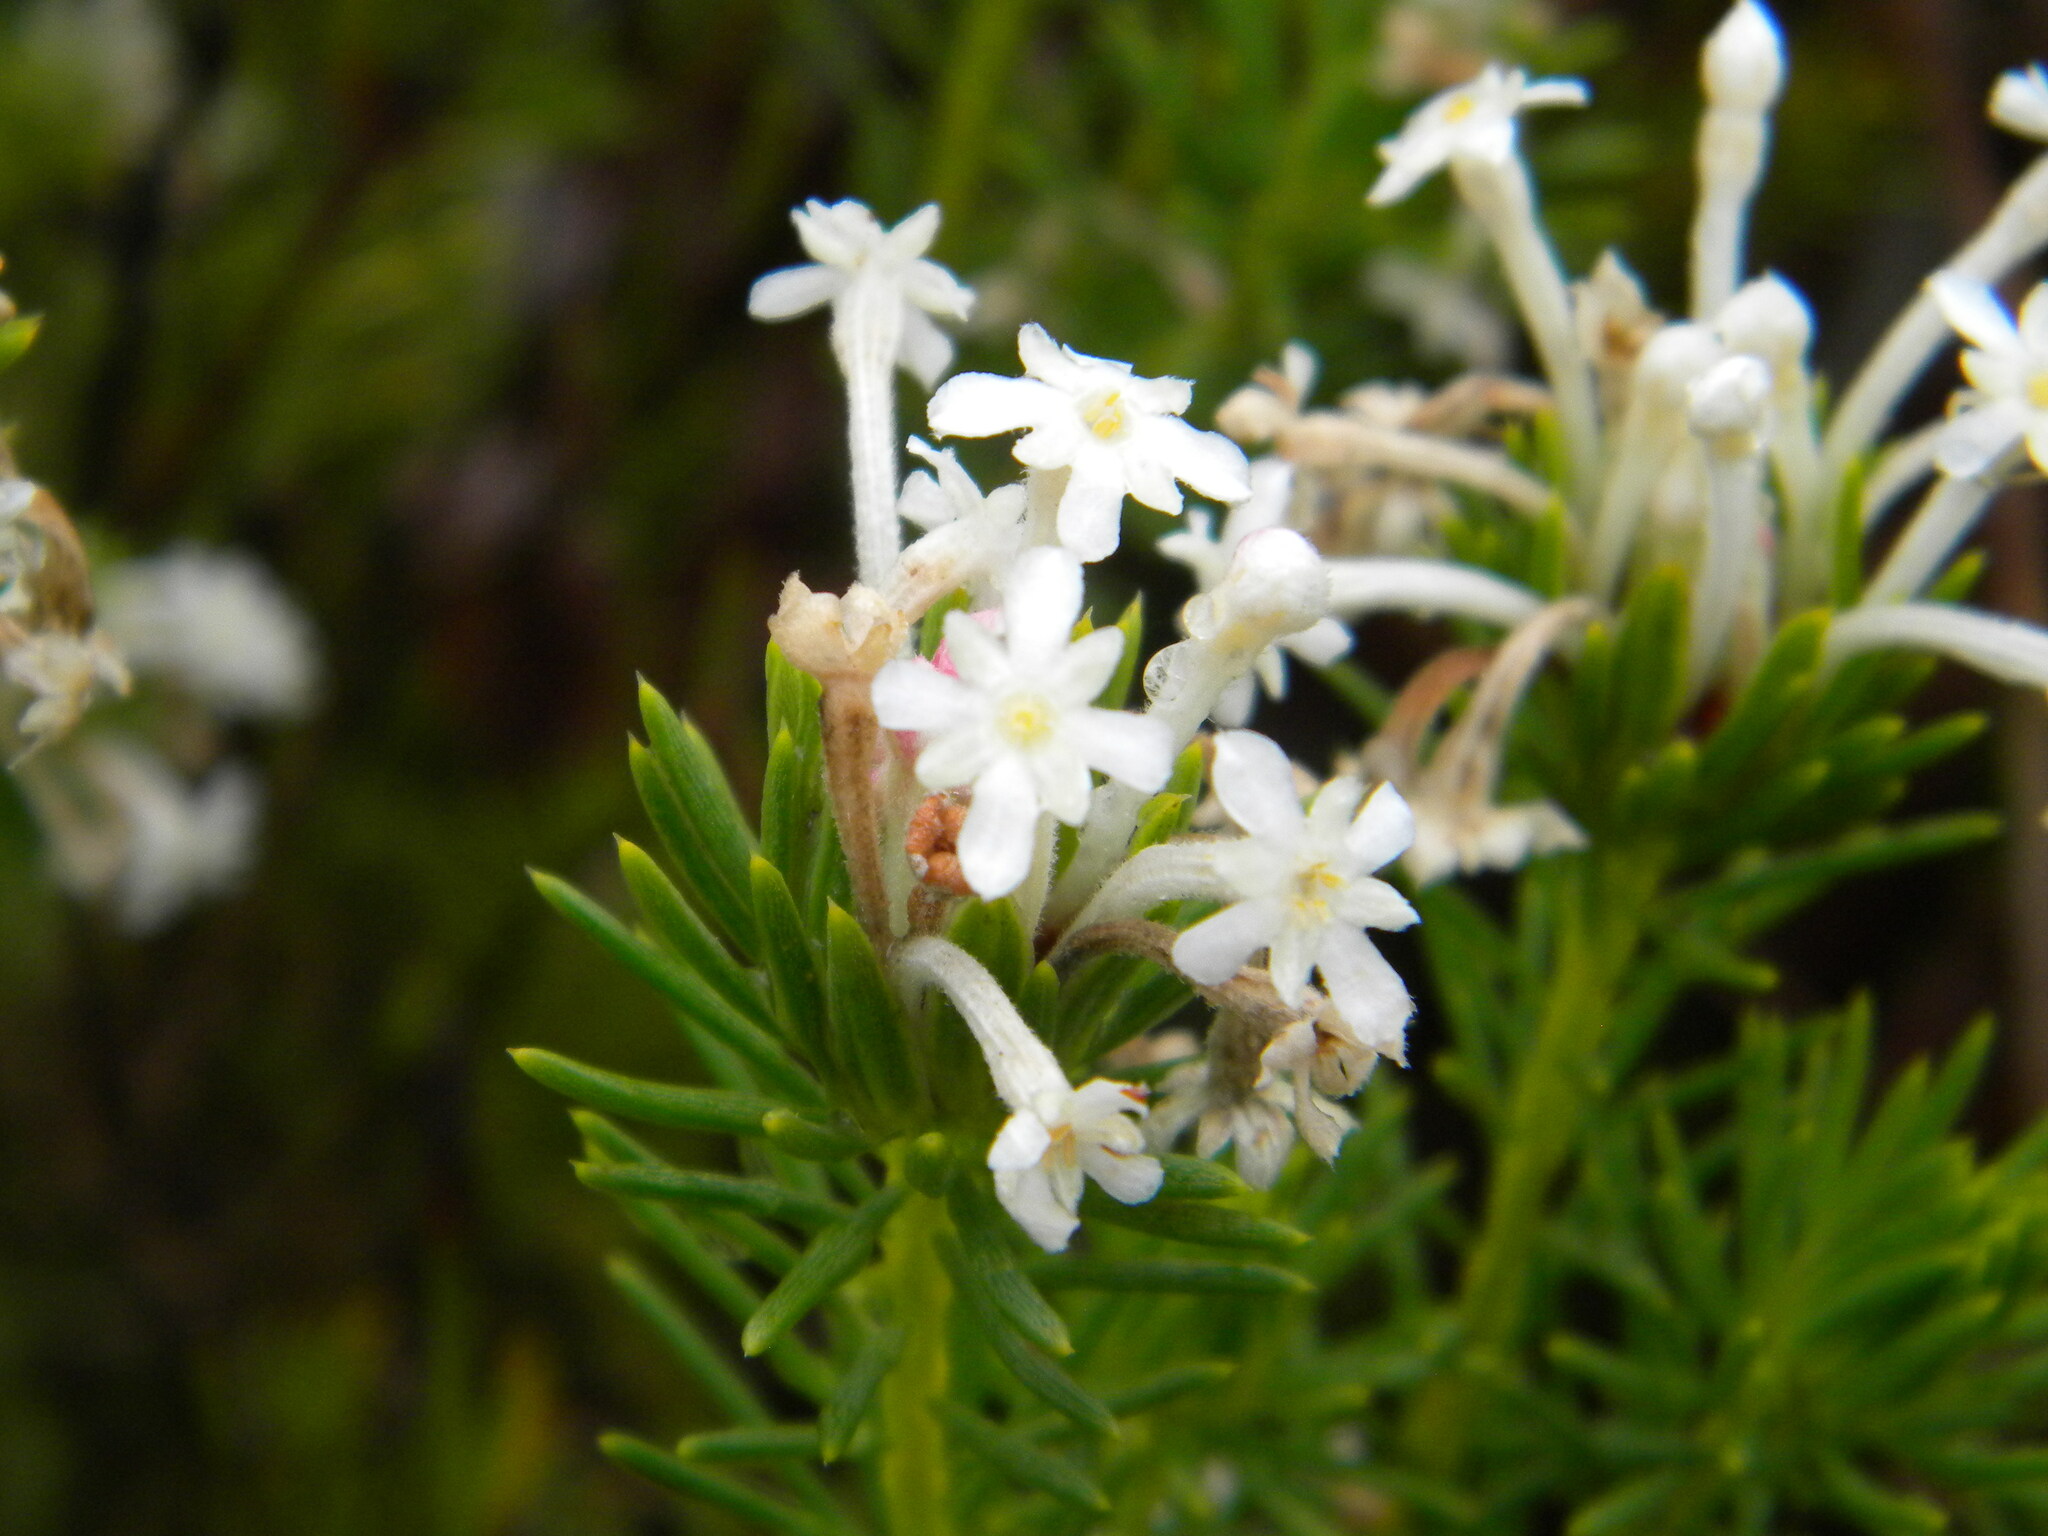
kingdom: Plantae
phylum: Tracheophyta
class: Magnoliopsida
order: Malvales
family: Thymelaeaceae
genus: Gnidia
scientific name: Gnidia pinifolia
